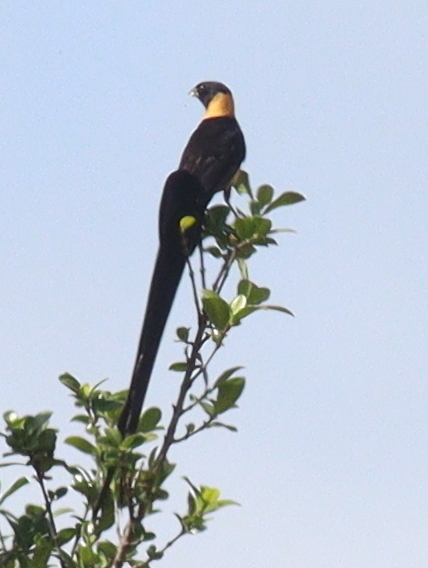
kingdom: Animalia
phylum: Chordata
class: Aves
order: Passeriformes
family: Viduidae
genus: Vidua
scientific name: Vidua paradisaea
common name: Long-tailed paradise whydah
